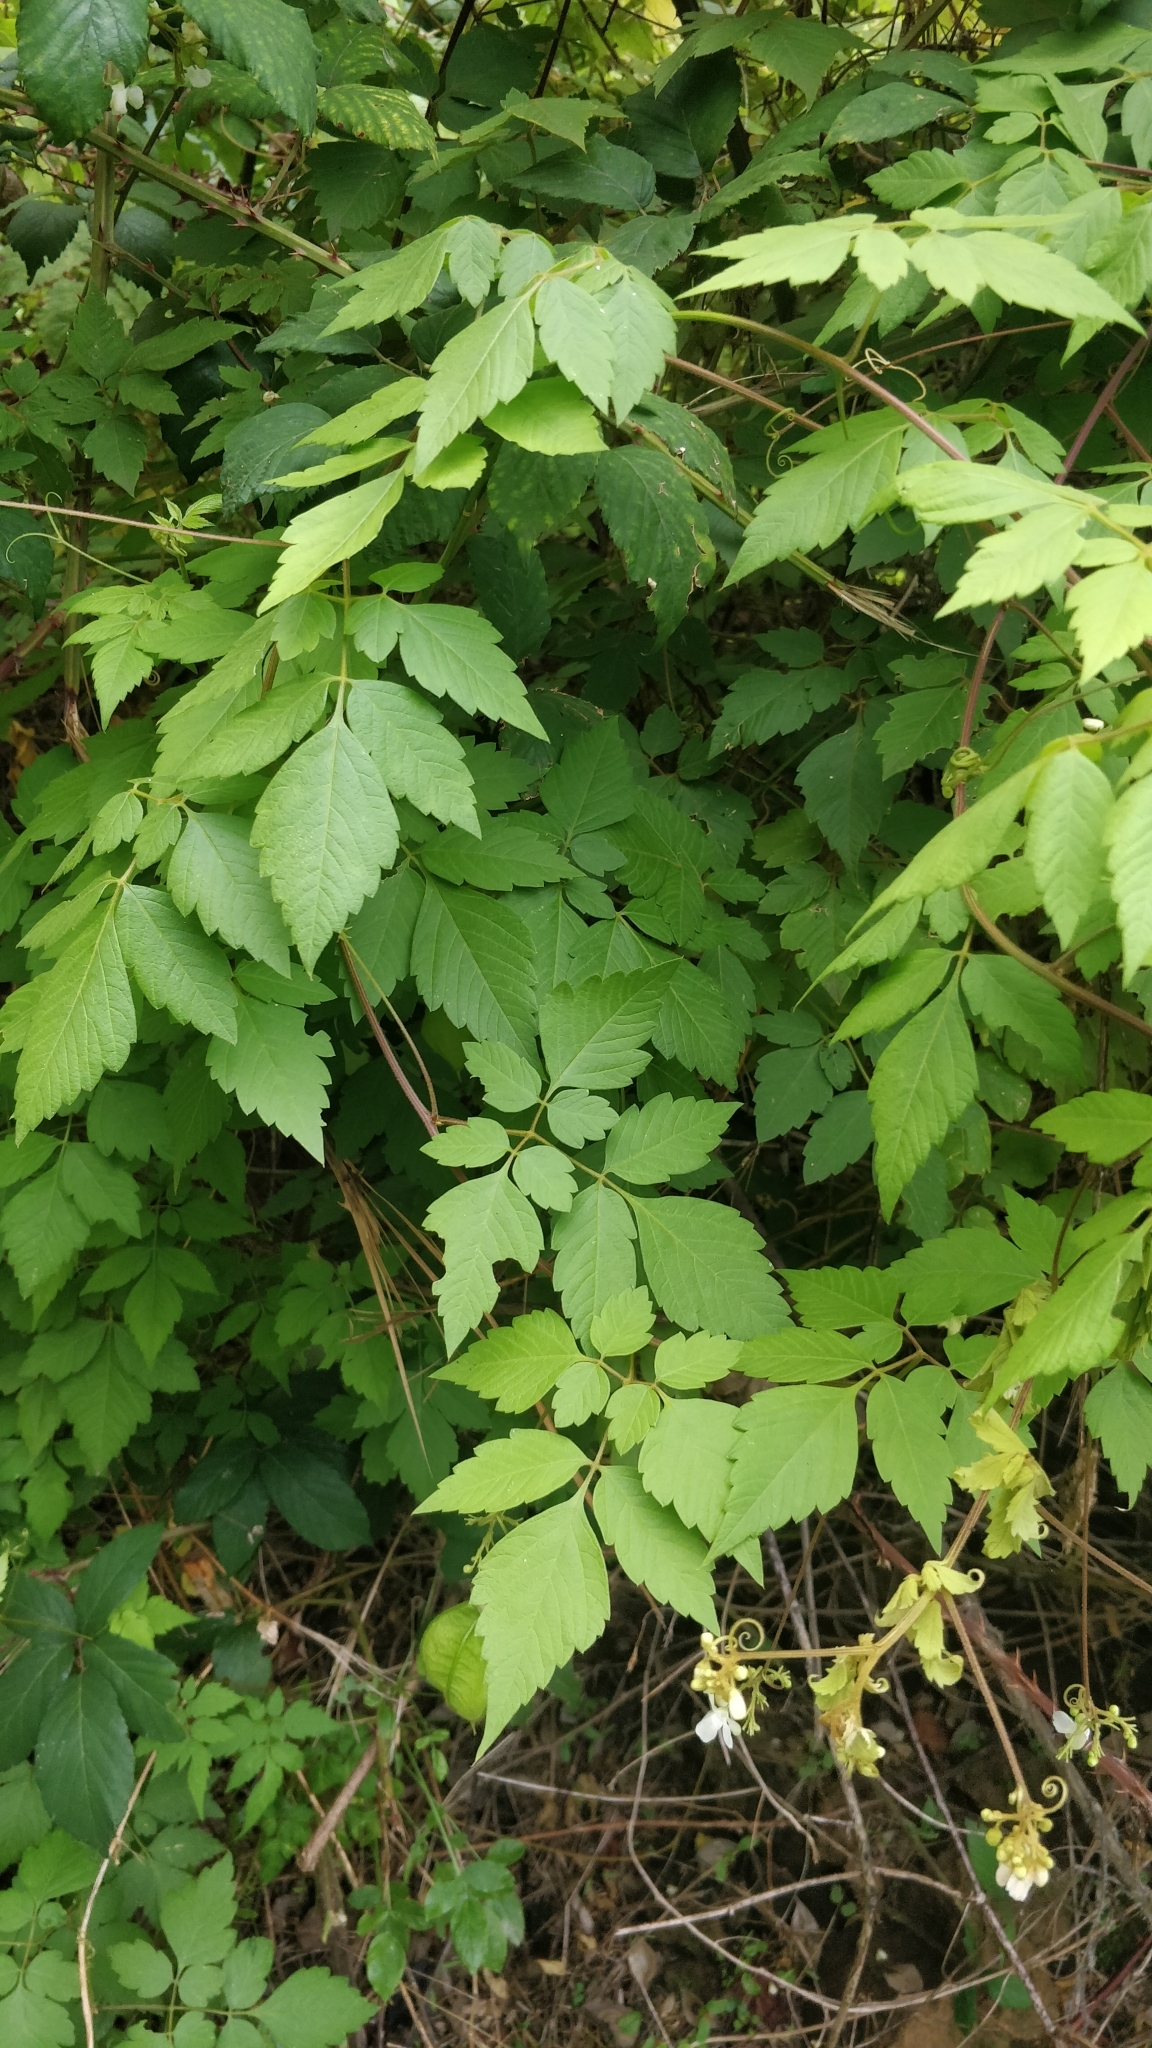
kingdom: Plantae
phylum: Tracheophyta
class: Magnoliopsida
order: Sapindales
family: Sapindaceae
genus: Cardiospermum
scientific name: Cardiospermum grandiflorum
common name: Balloon vine
